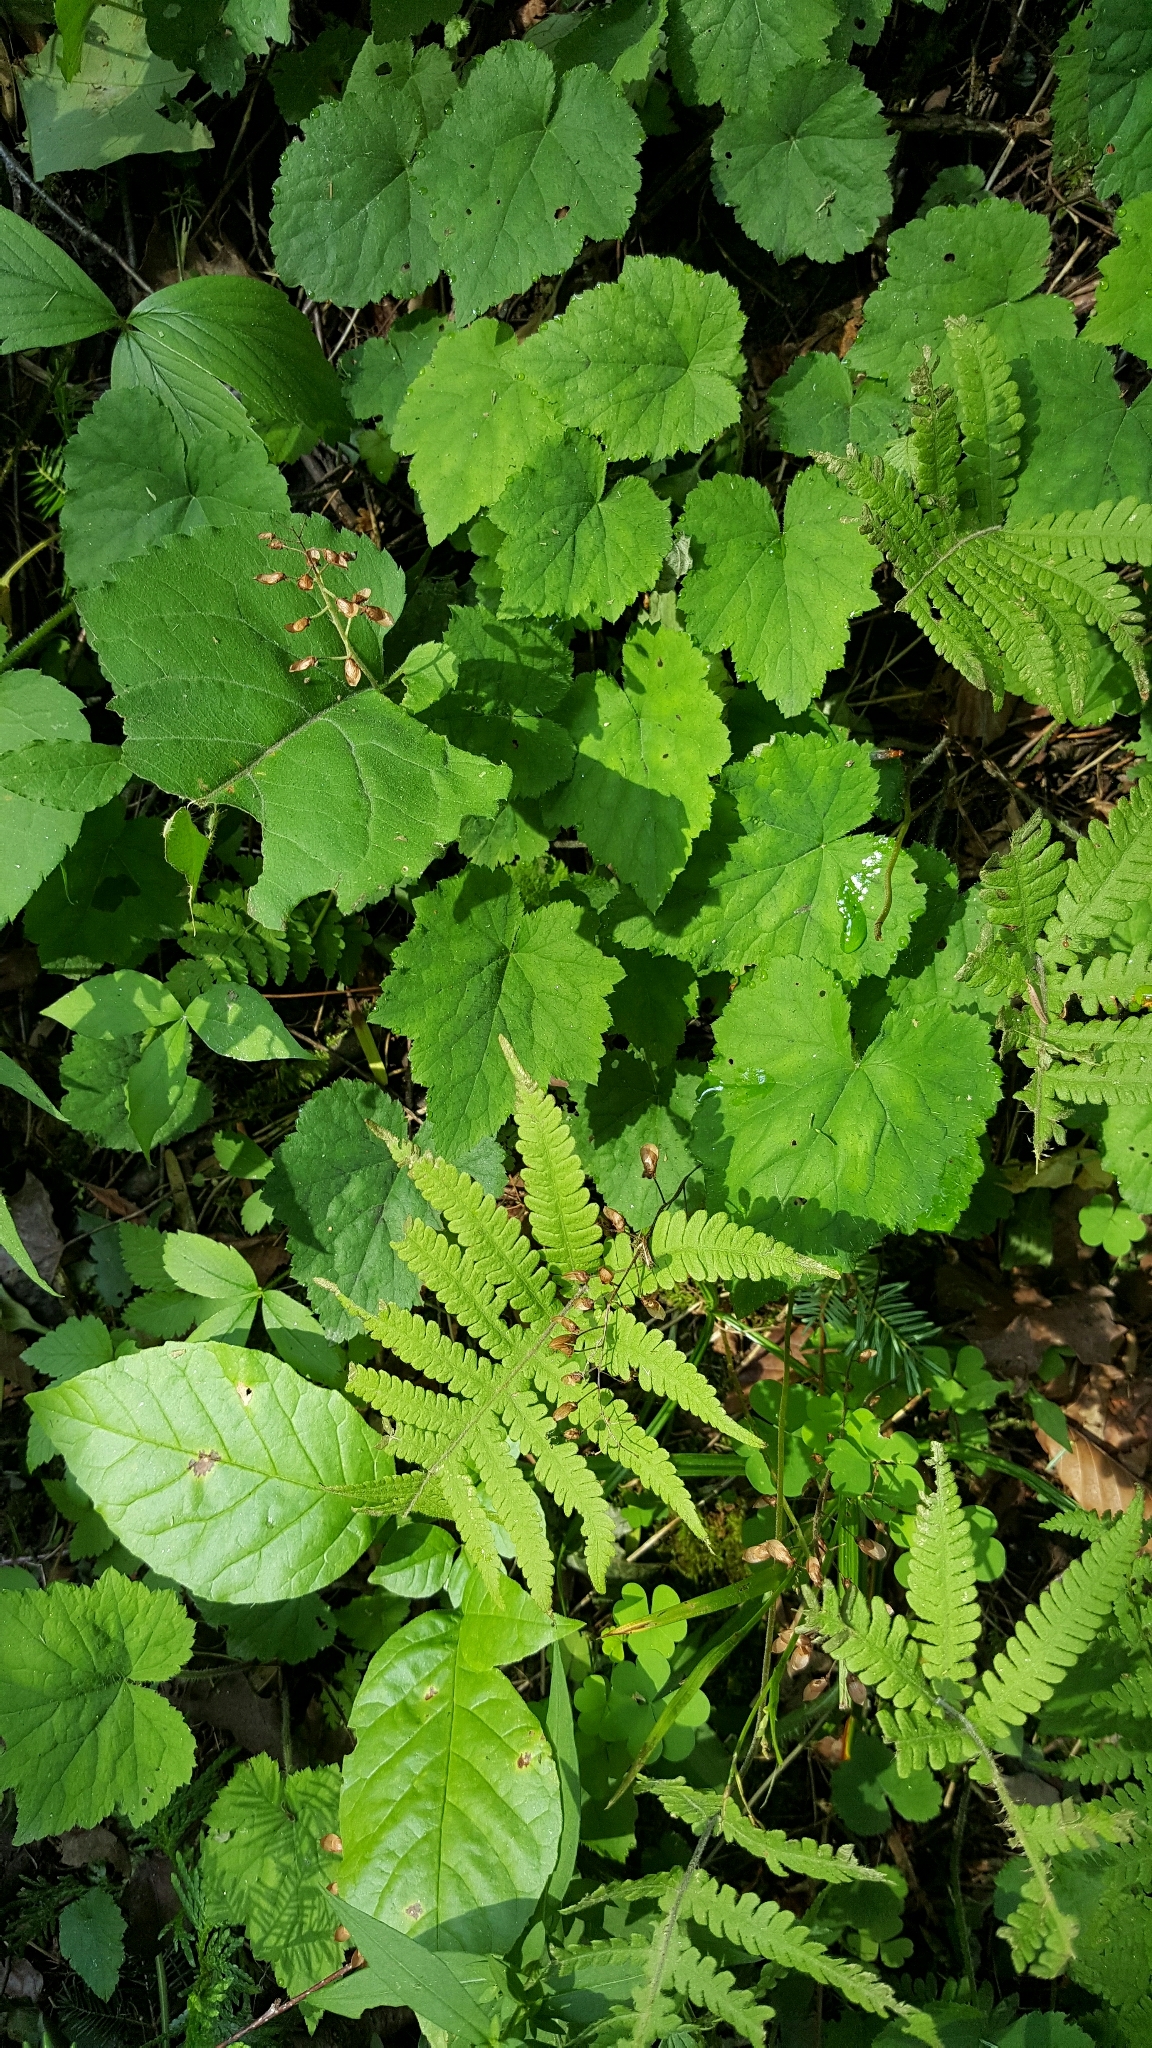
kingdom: Plantae
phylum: Tracheophyta
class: Magnoliopsida
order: Saxifragales
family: Saxifragaceae
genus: Tiarella
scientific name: Tiarella stolonifera
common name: Stoloniferous foamflower
